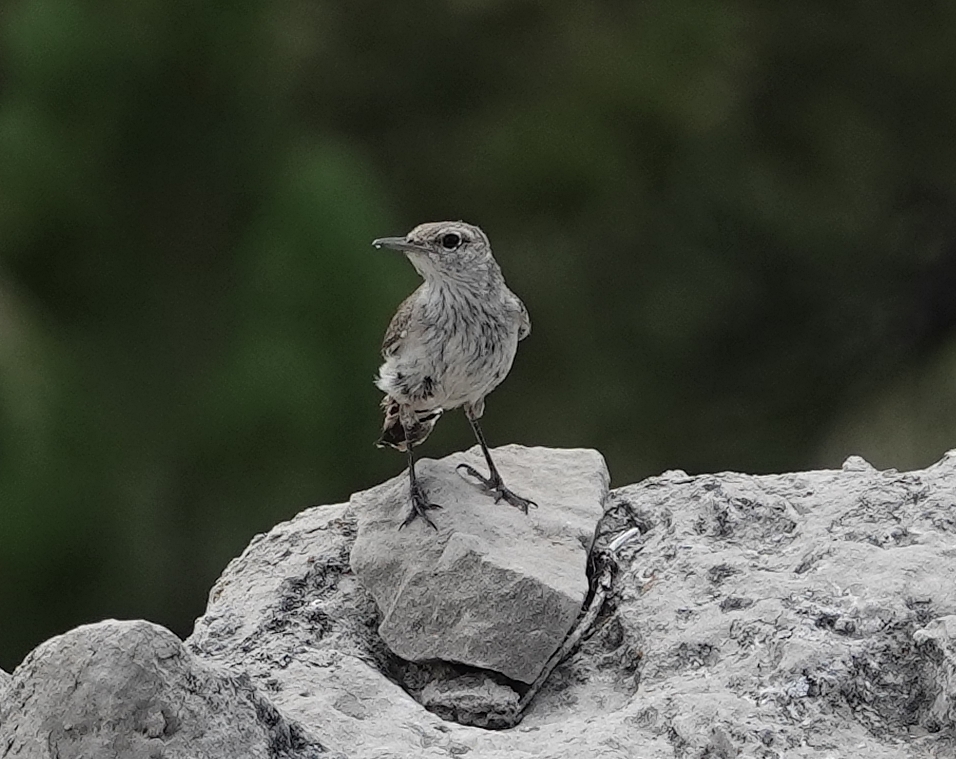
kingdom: Animalia
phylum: Chordata
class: Aves
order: Passeriformes
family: Troglodytidae
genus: Salpinctes
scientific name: Salpinctes obsoletus
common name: Rock wren
